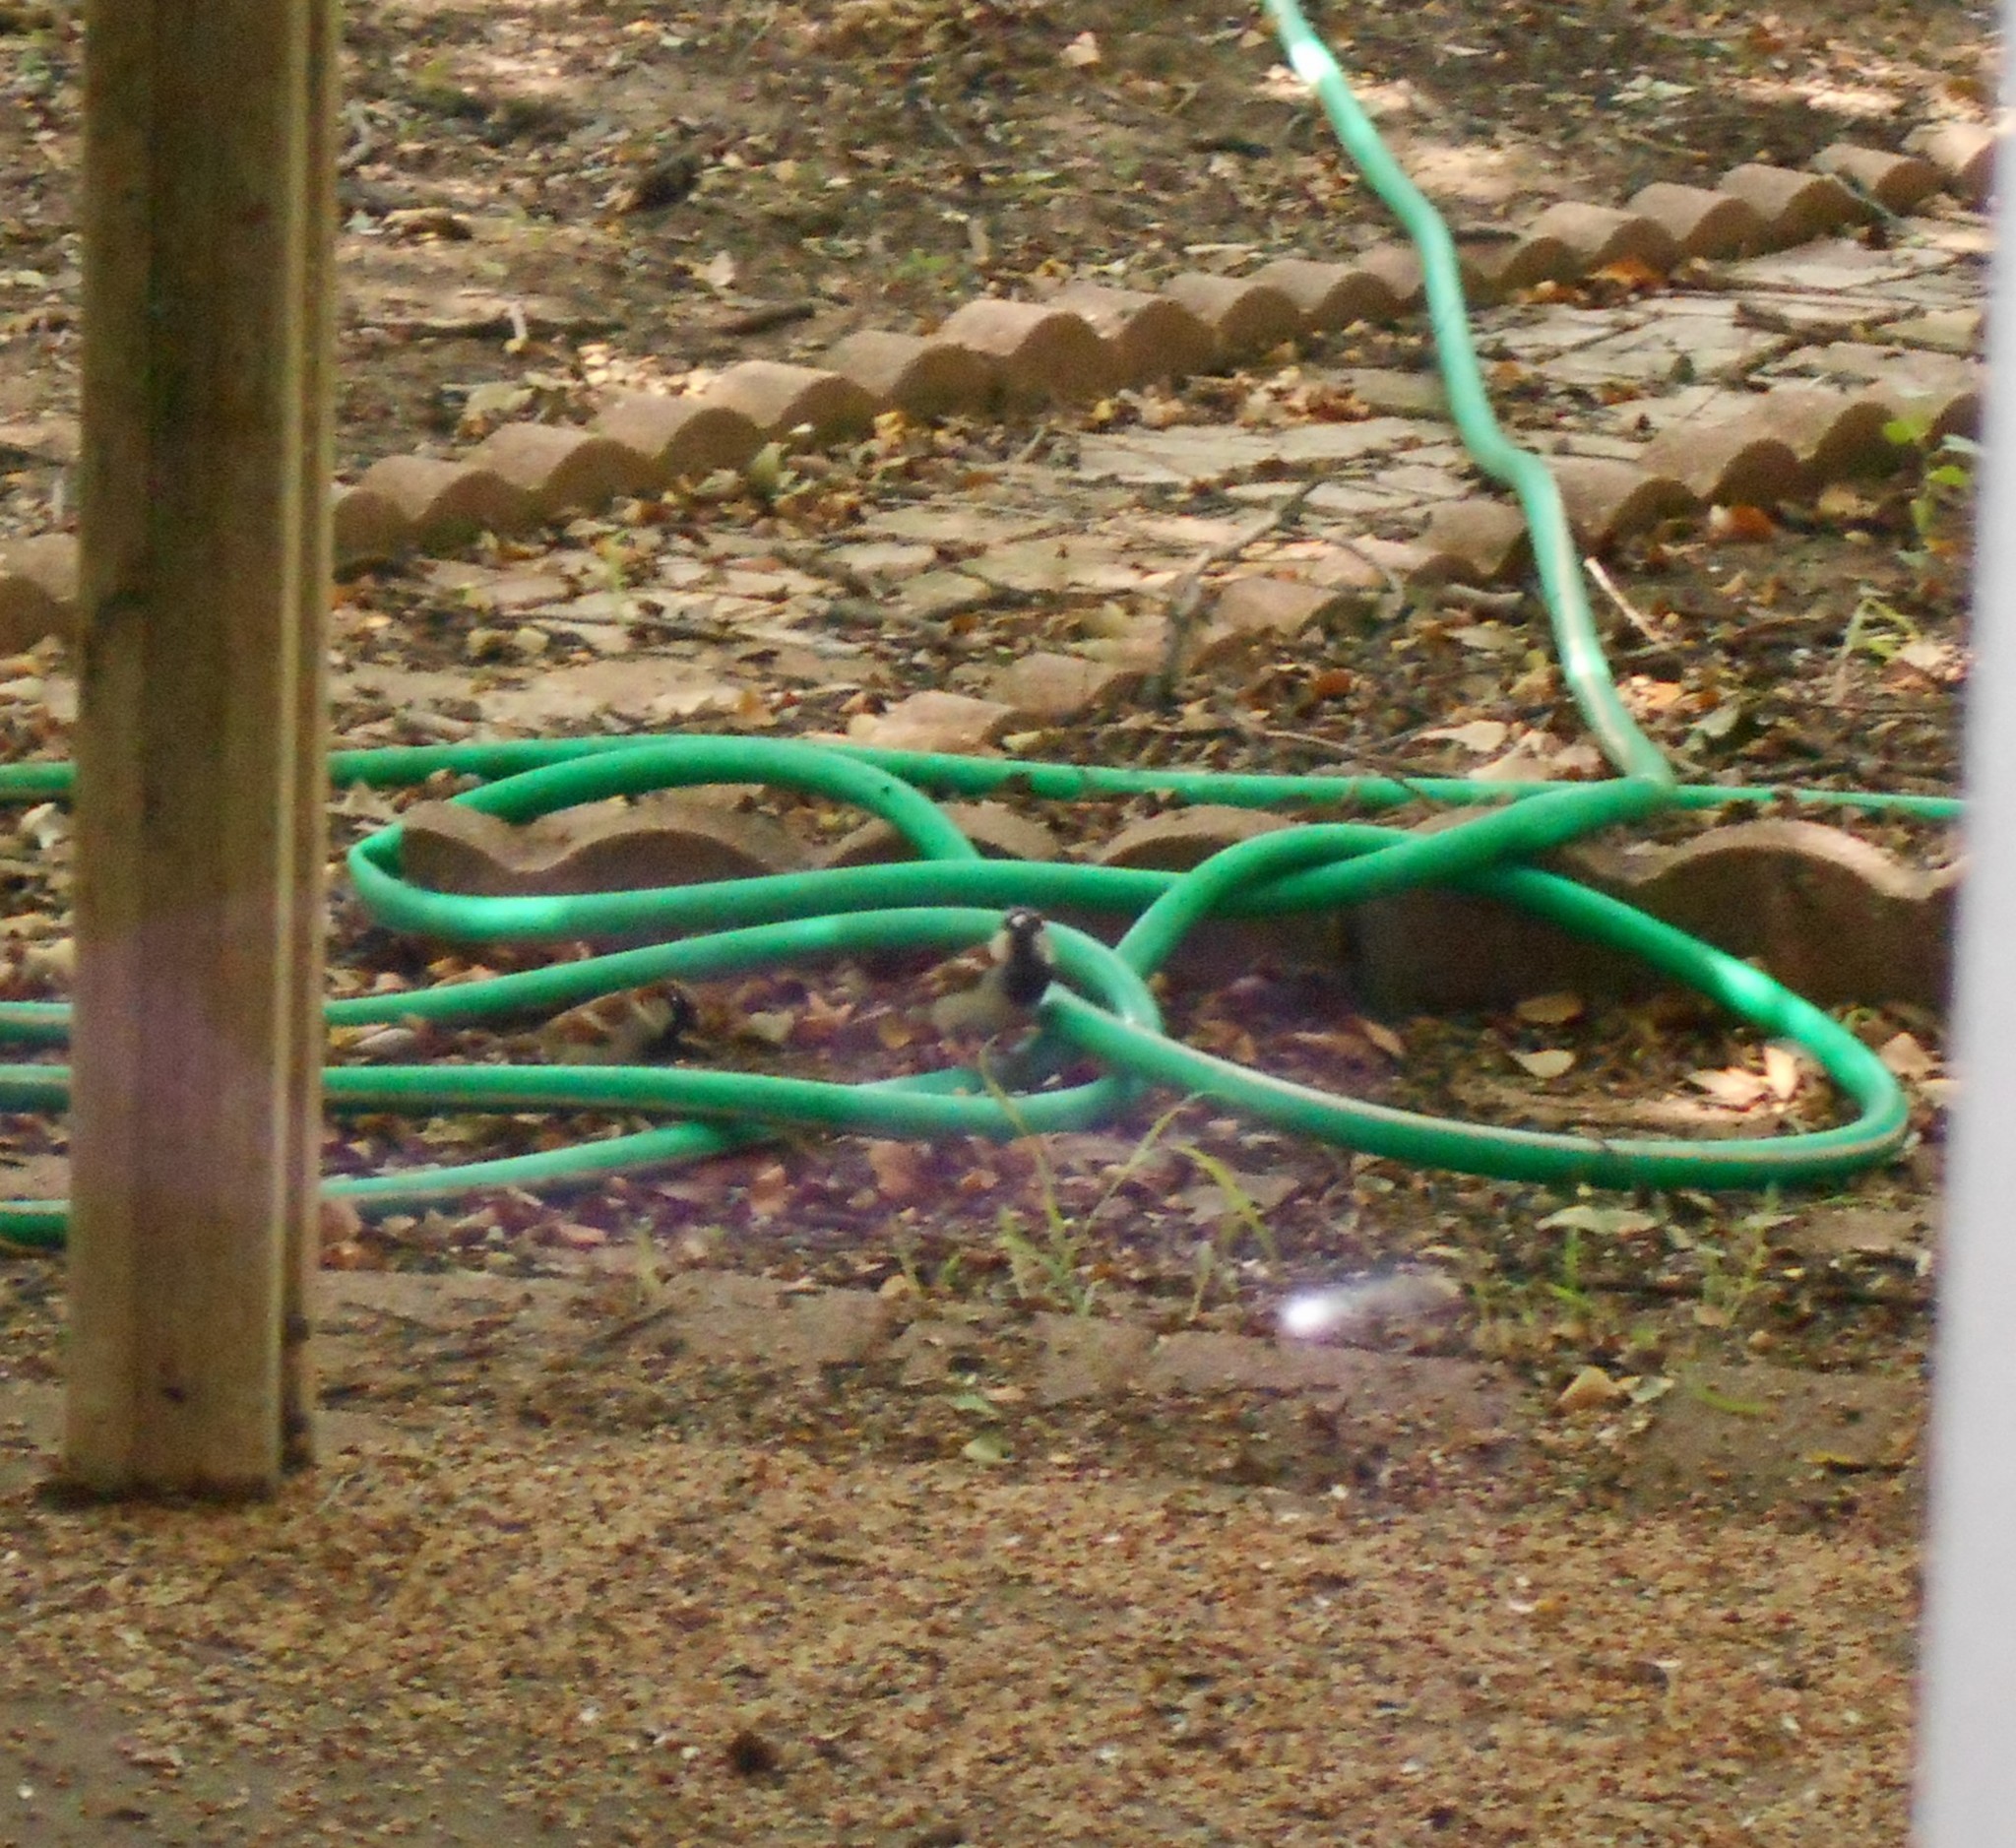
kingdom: Animalia
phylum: Chordata
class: Aves
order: Passeriformes
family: Passeridae
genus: Passer
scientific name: Passer domesticus
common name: House sparrow
